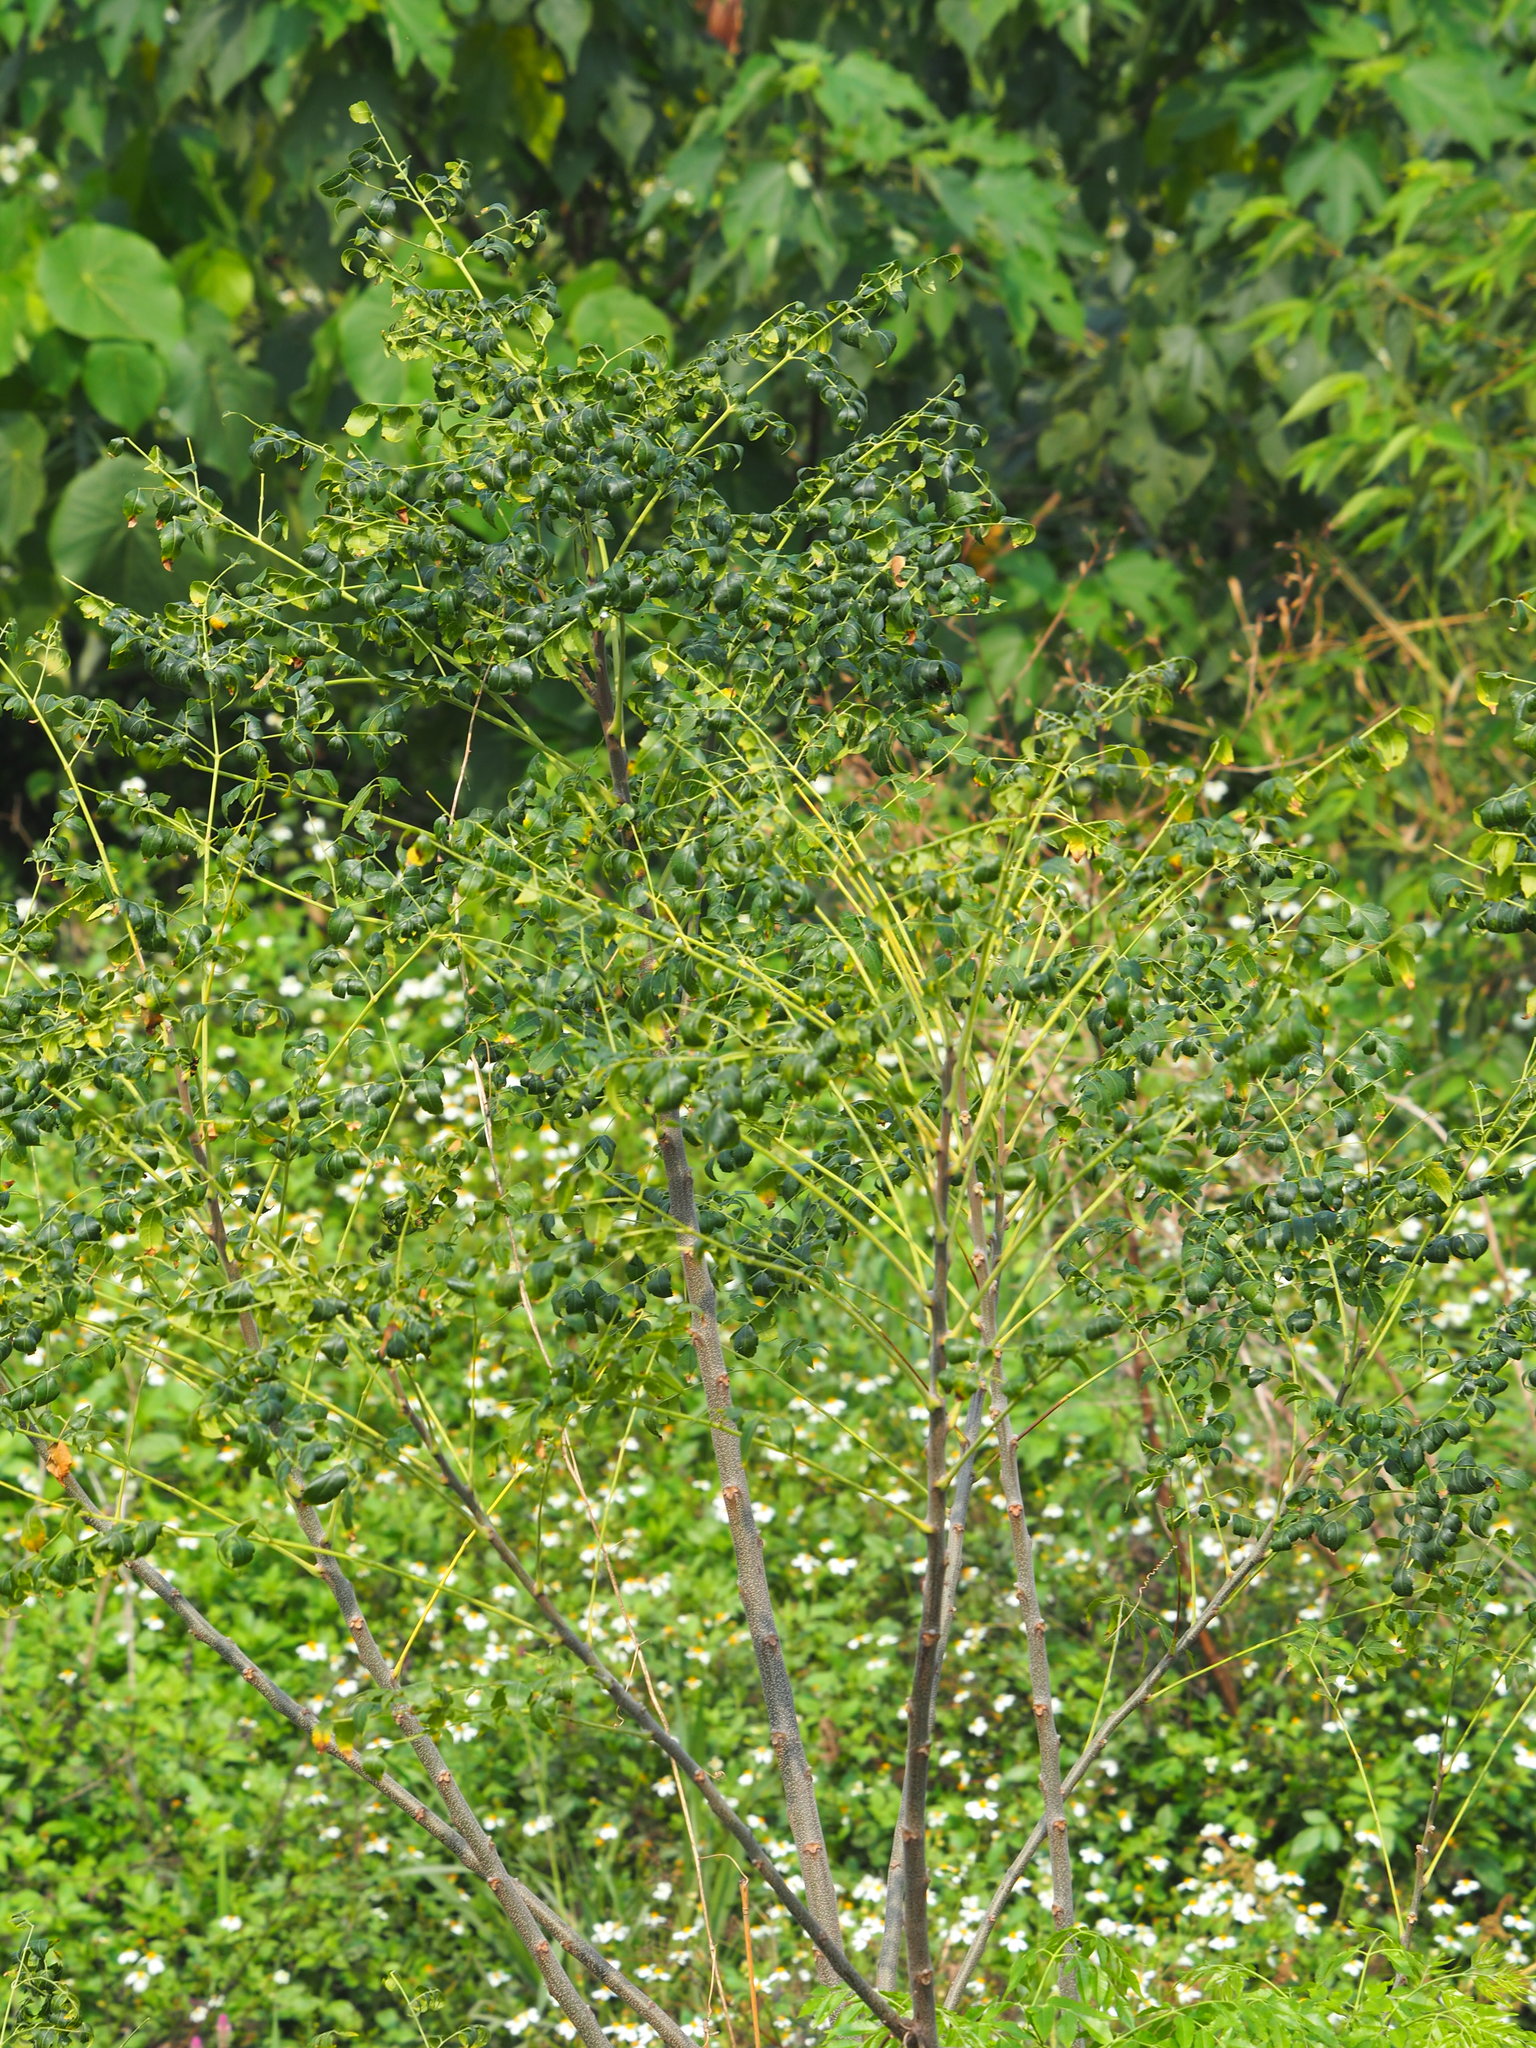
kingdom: Plantae
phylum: Tracheophyta
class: Magnoliopsida
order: Sapindales
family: Meliaceae
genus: Melia
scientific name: Melia azedarach
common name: Chinaberrytree
